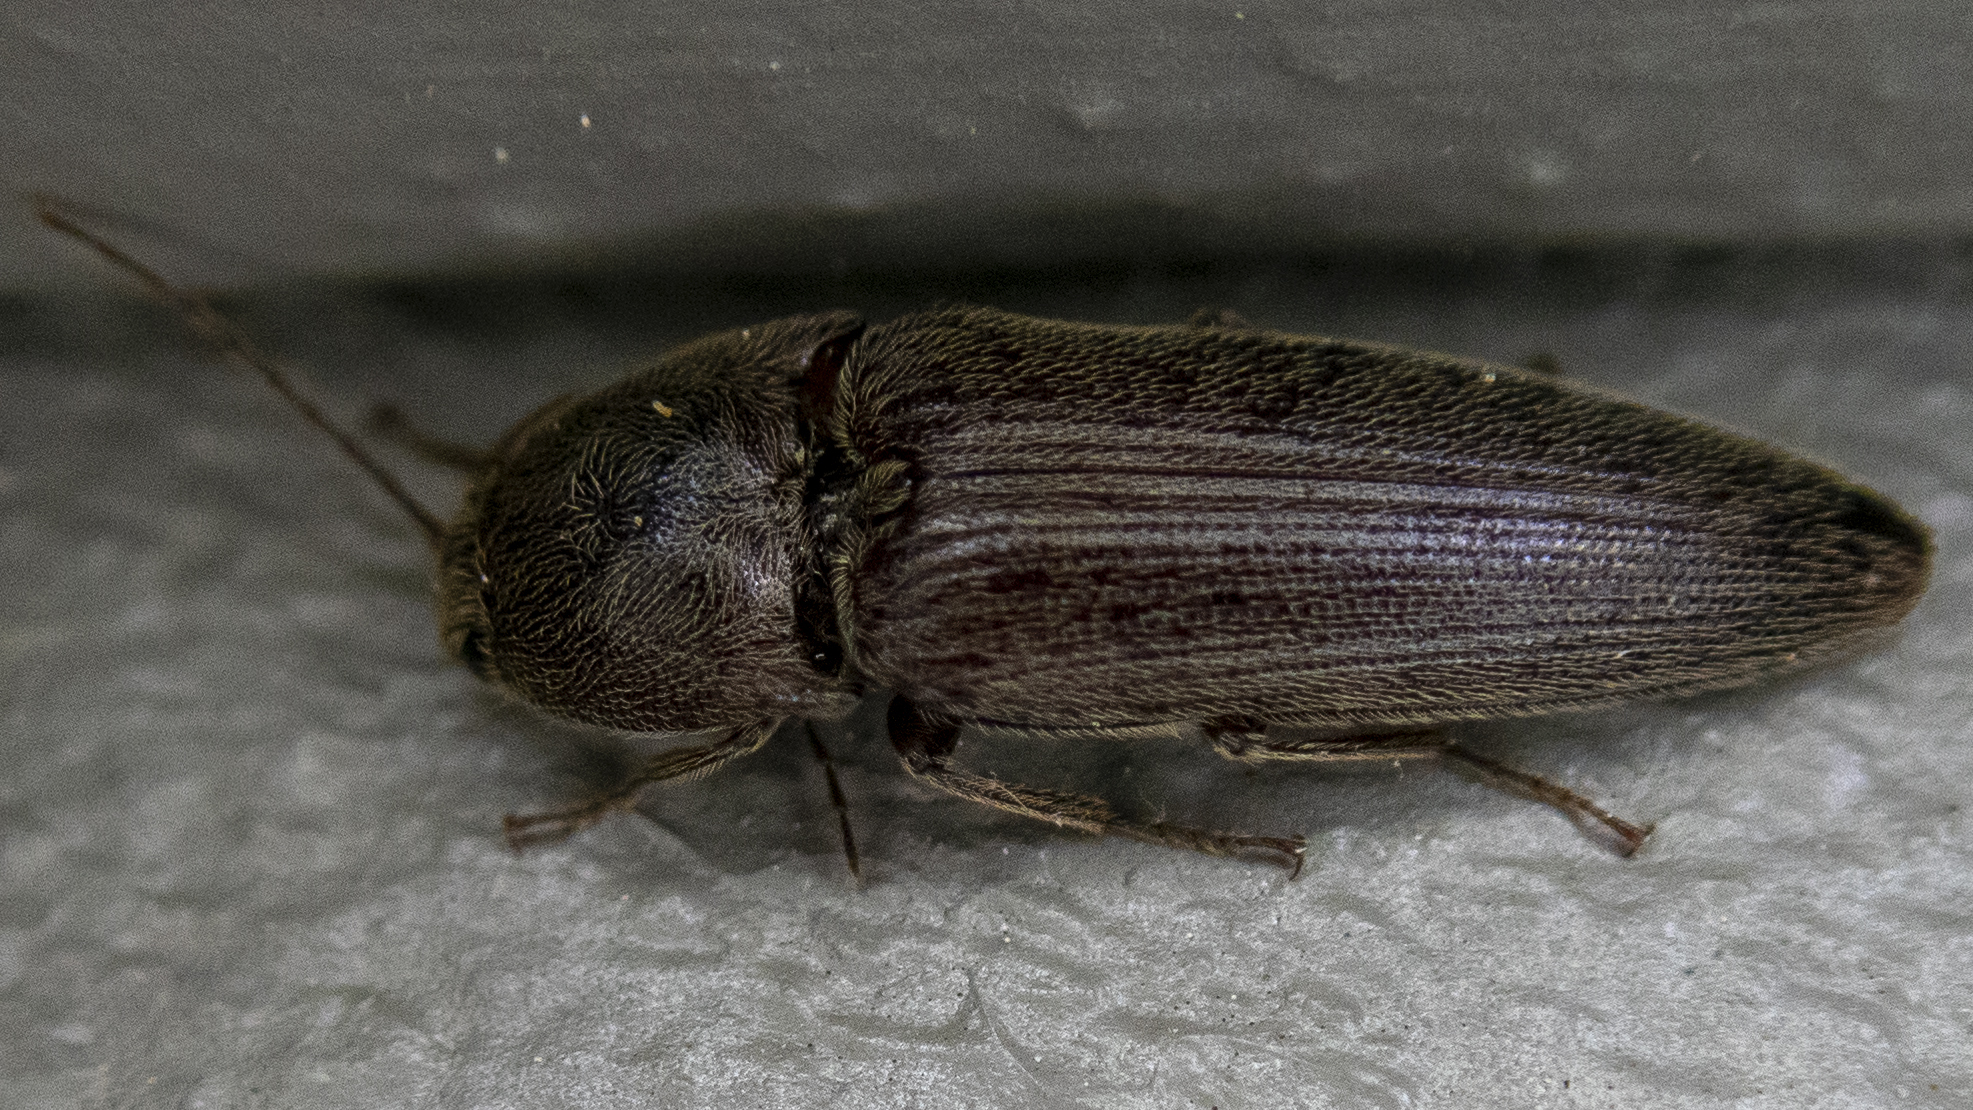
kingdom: Animalia
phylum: Arthropoda
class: Insecta
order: Coleoptera
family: Elateridae
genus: Melanotus
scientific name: Melanotus
